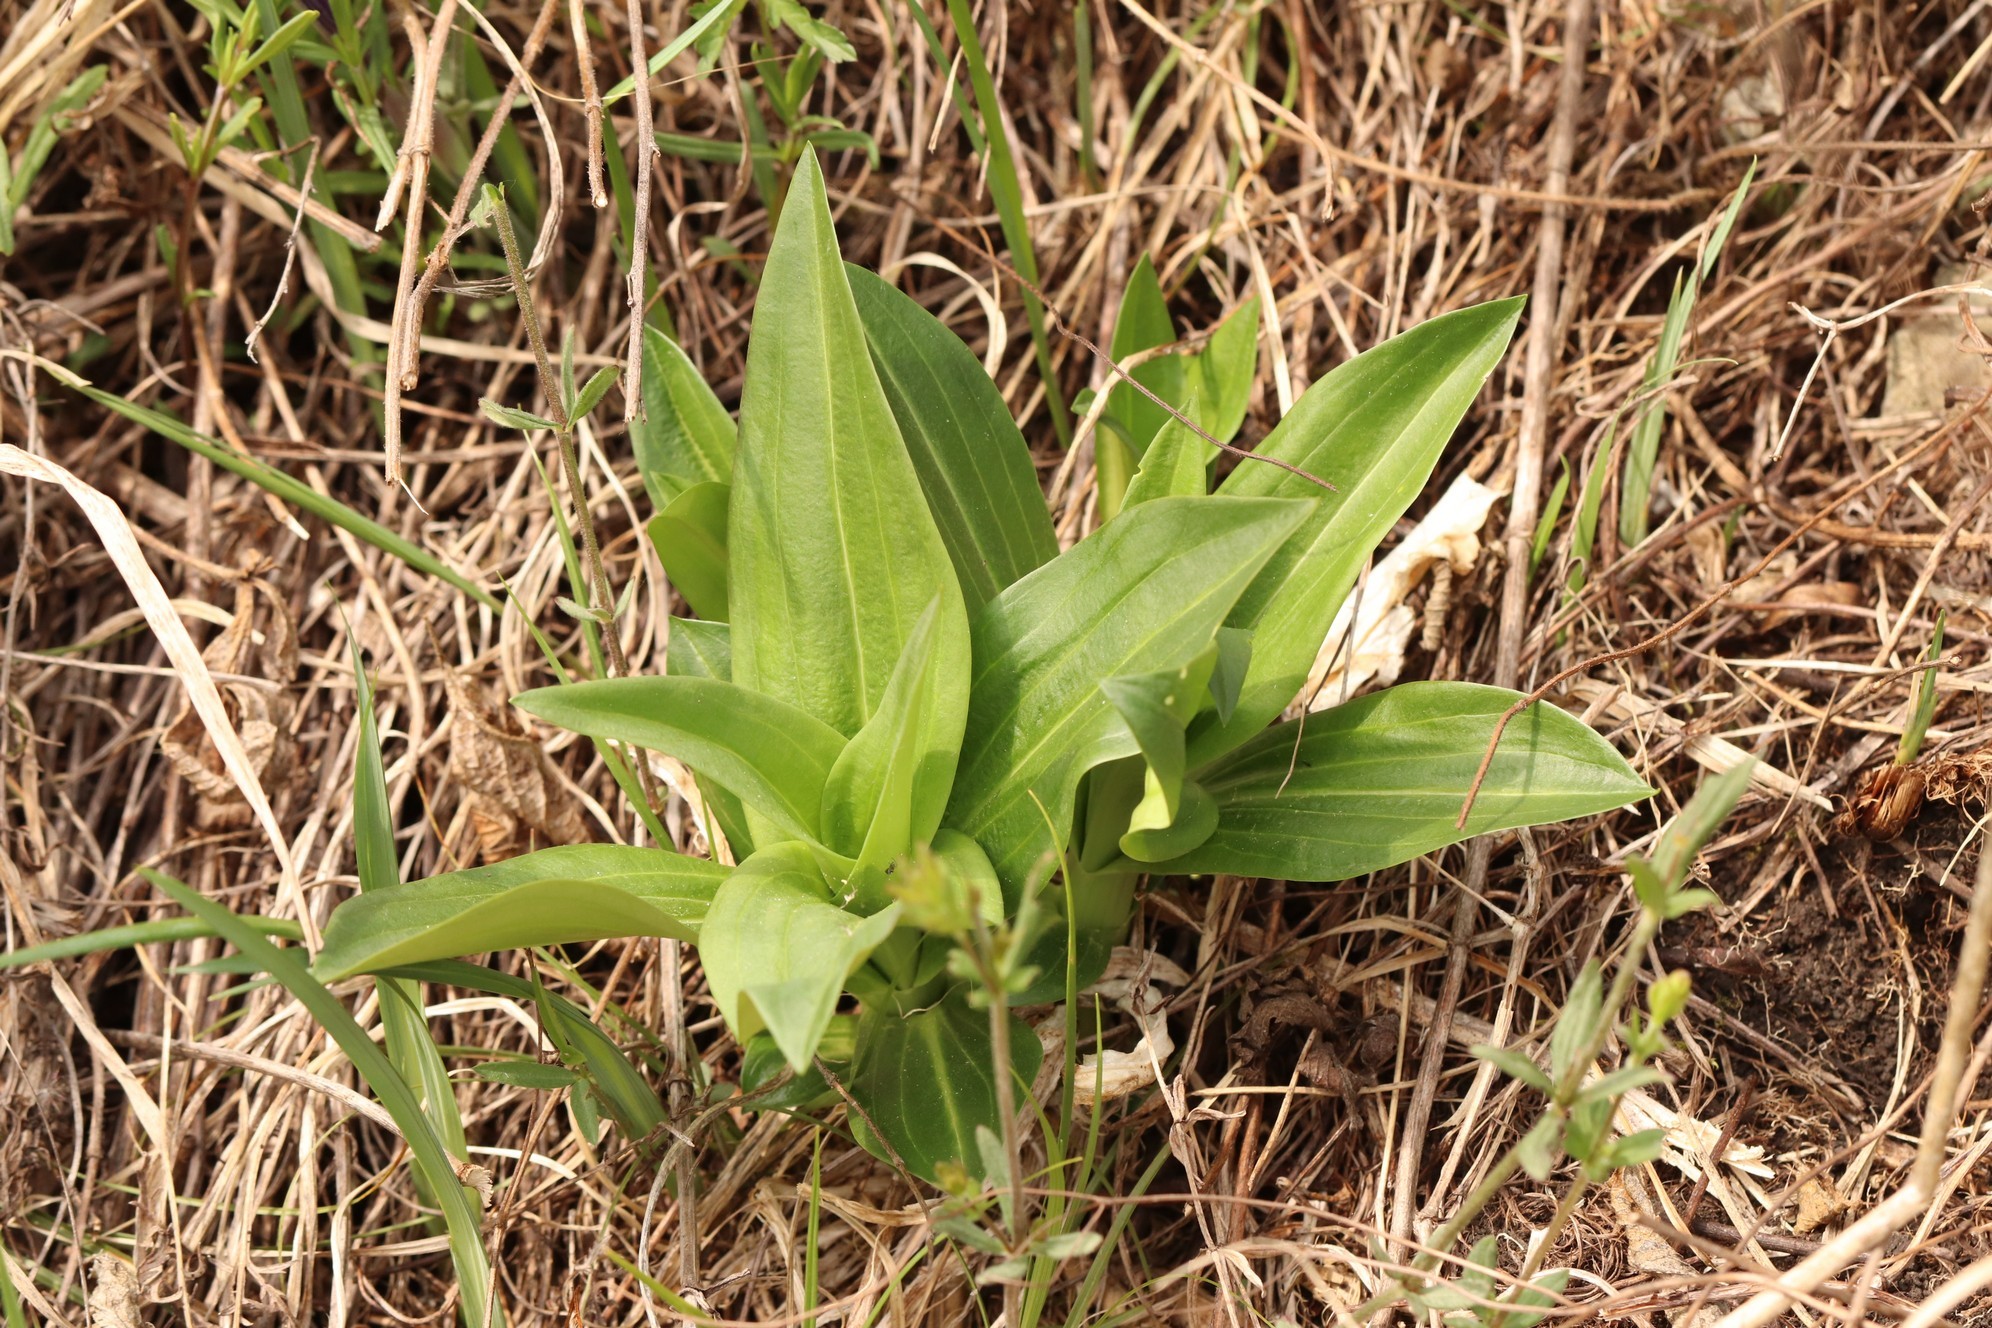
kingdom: Plantae
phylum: Tracheophyta
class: Magnoliopsida
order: Gentianales
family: Gentianaceae
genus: Gentiana
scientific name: Gentiana macrophylla
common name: Large-leaf gentian
